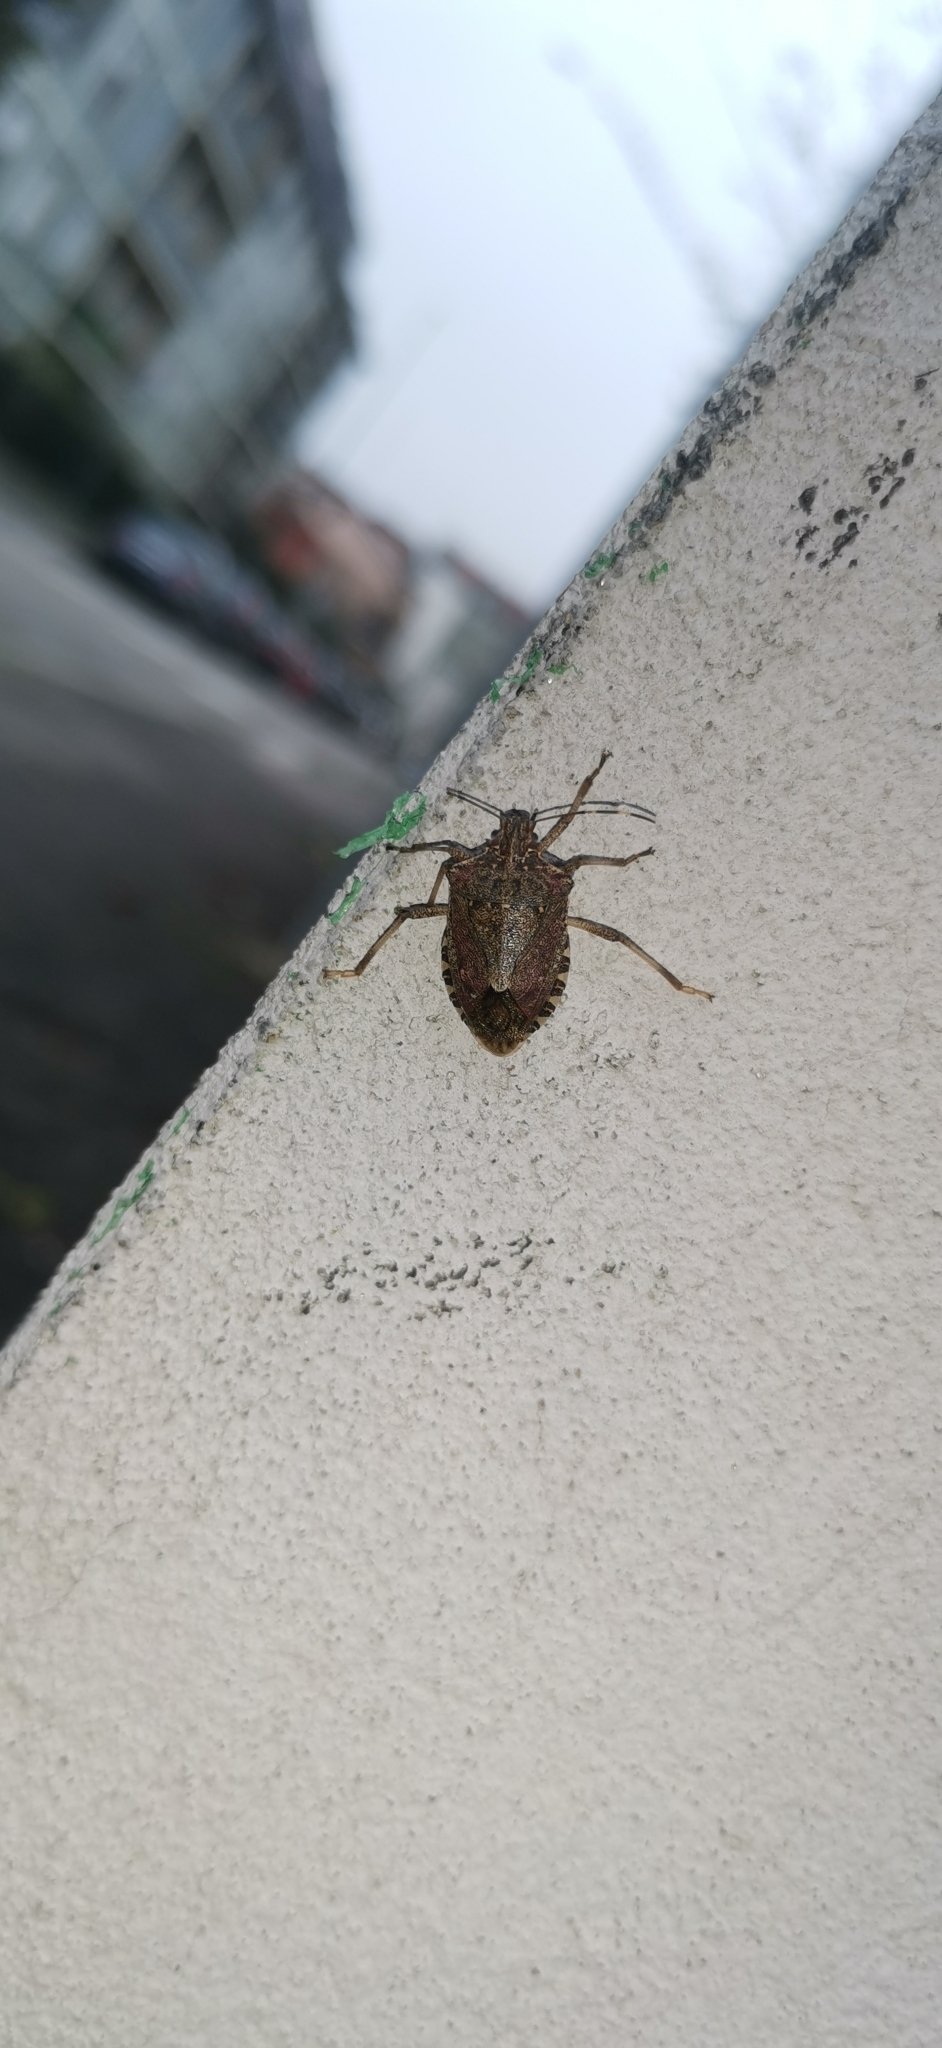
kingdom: Animalia
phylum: Arthropoda
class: Insecta
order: Hemiptera
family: Pentatomidae
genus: Halyomorpha
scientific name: Halyomorpha halys
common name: Brown marmorated stink bug
